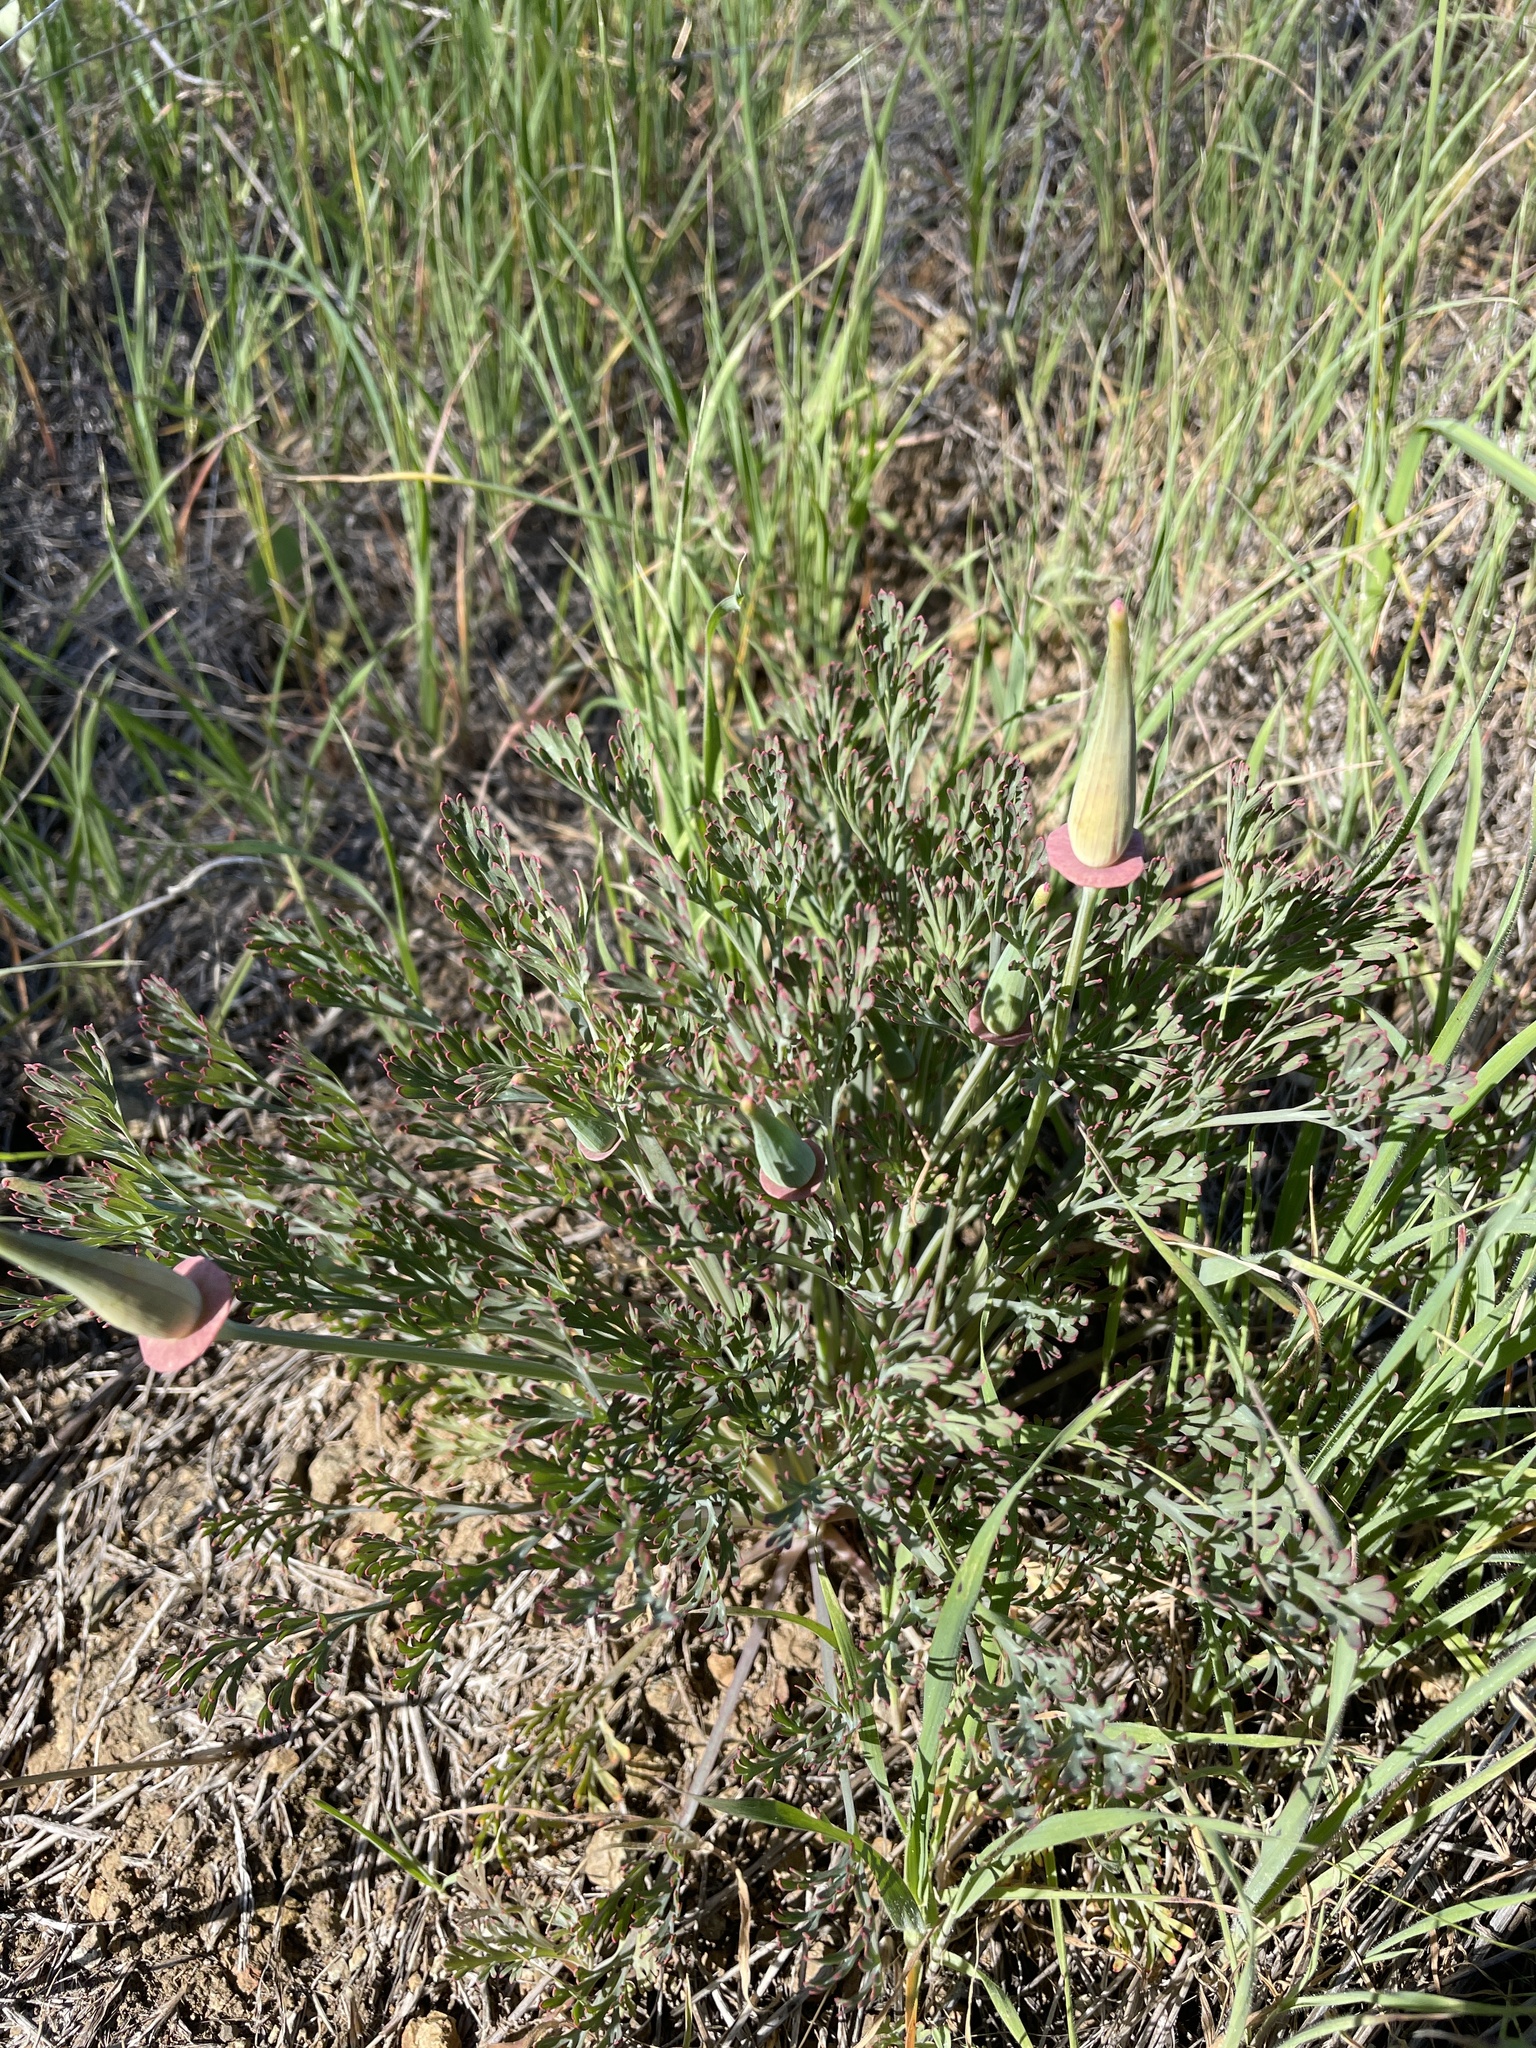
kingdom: Plantae
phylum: Tracheophyta
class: Magnoliopsida
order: Ranunculales
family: Papaveraceae
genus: Eschscholzia
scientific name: Eschscholzia californica
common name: California poppy
